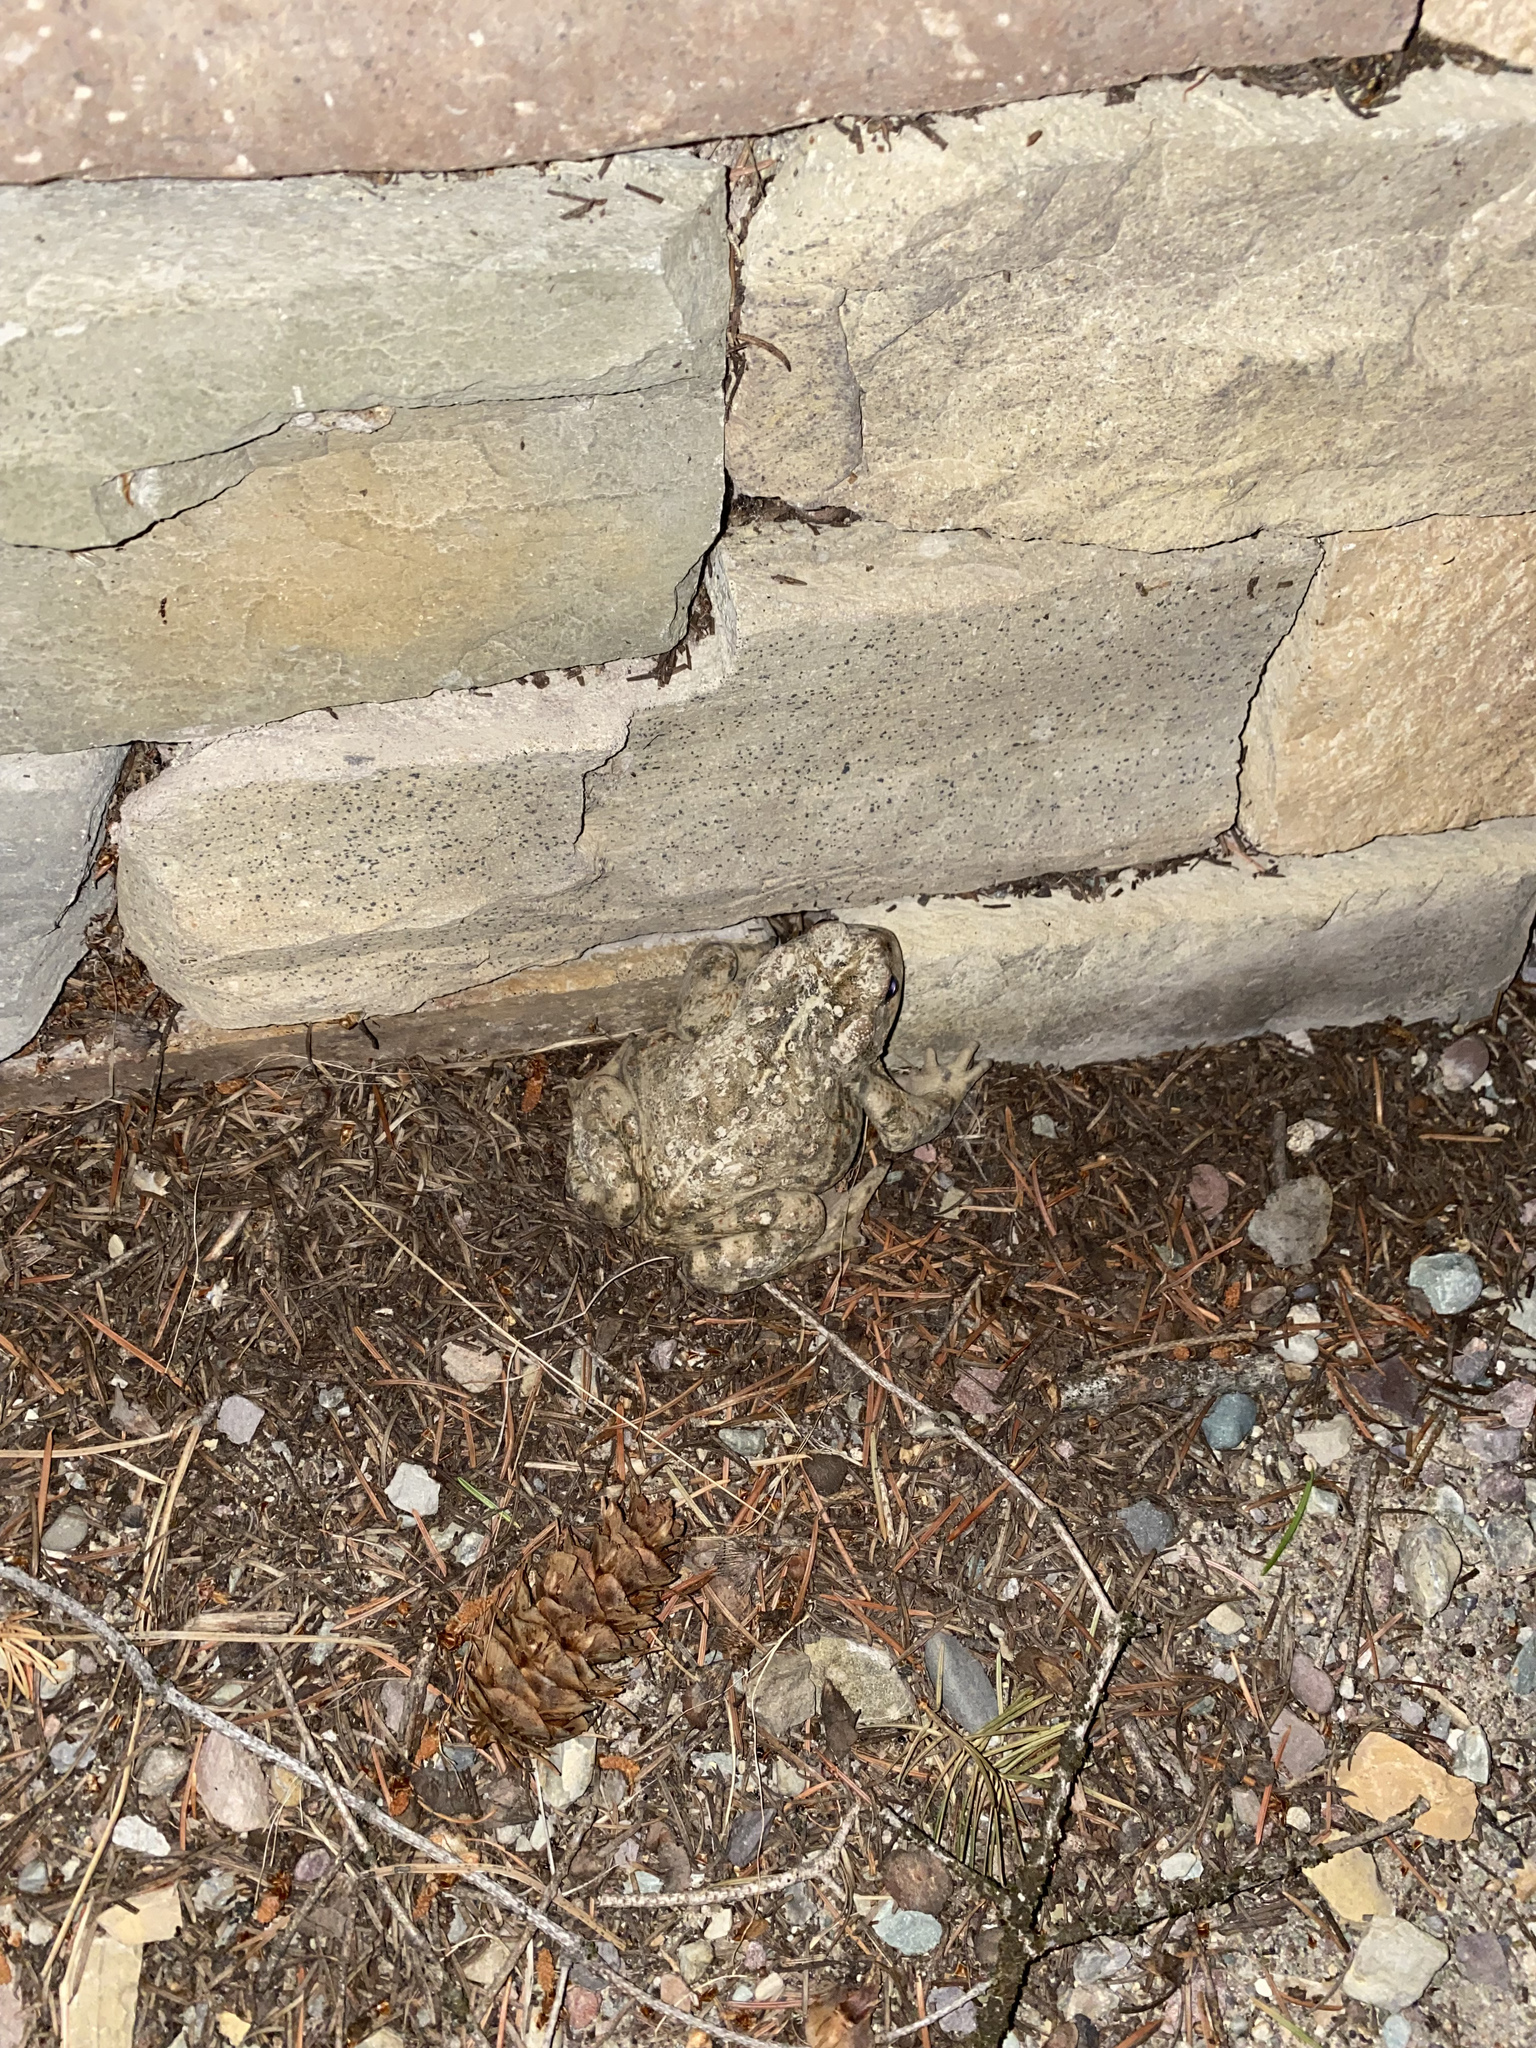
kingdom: Animalia
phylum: Chordata
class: Amphibia
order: Anura
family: Bufonidae
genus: Anaxyrus
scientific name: Anaxyrus boreas
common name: Western toad
